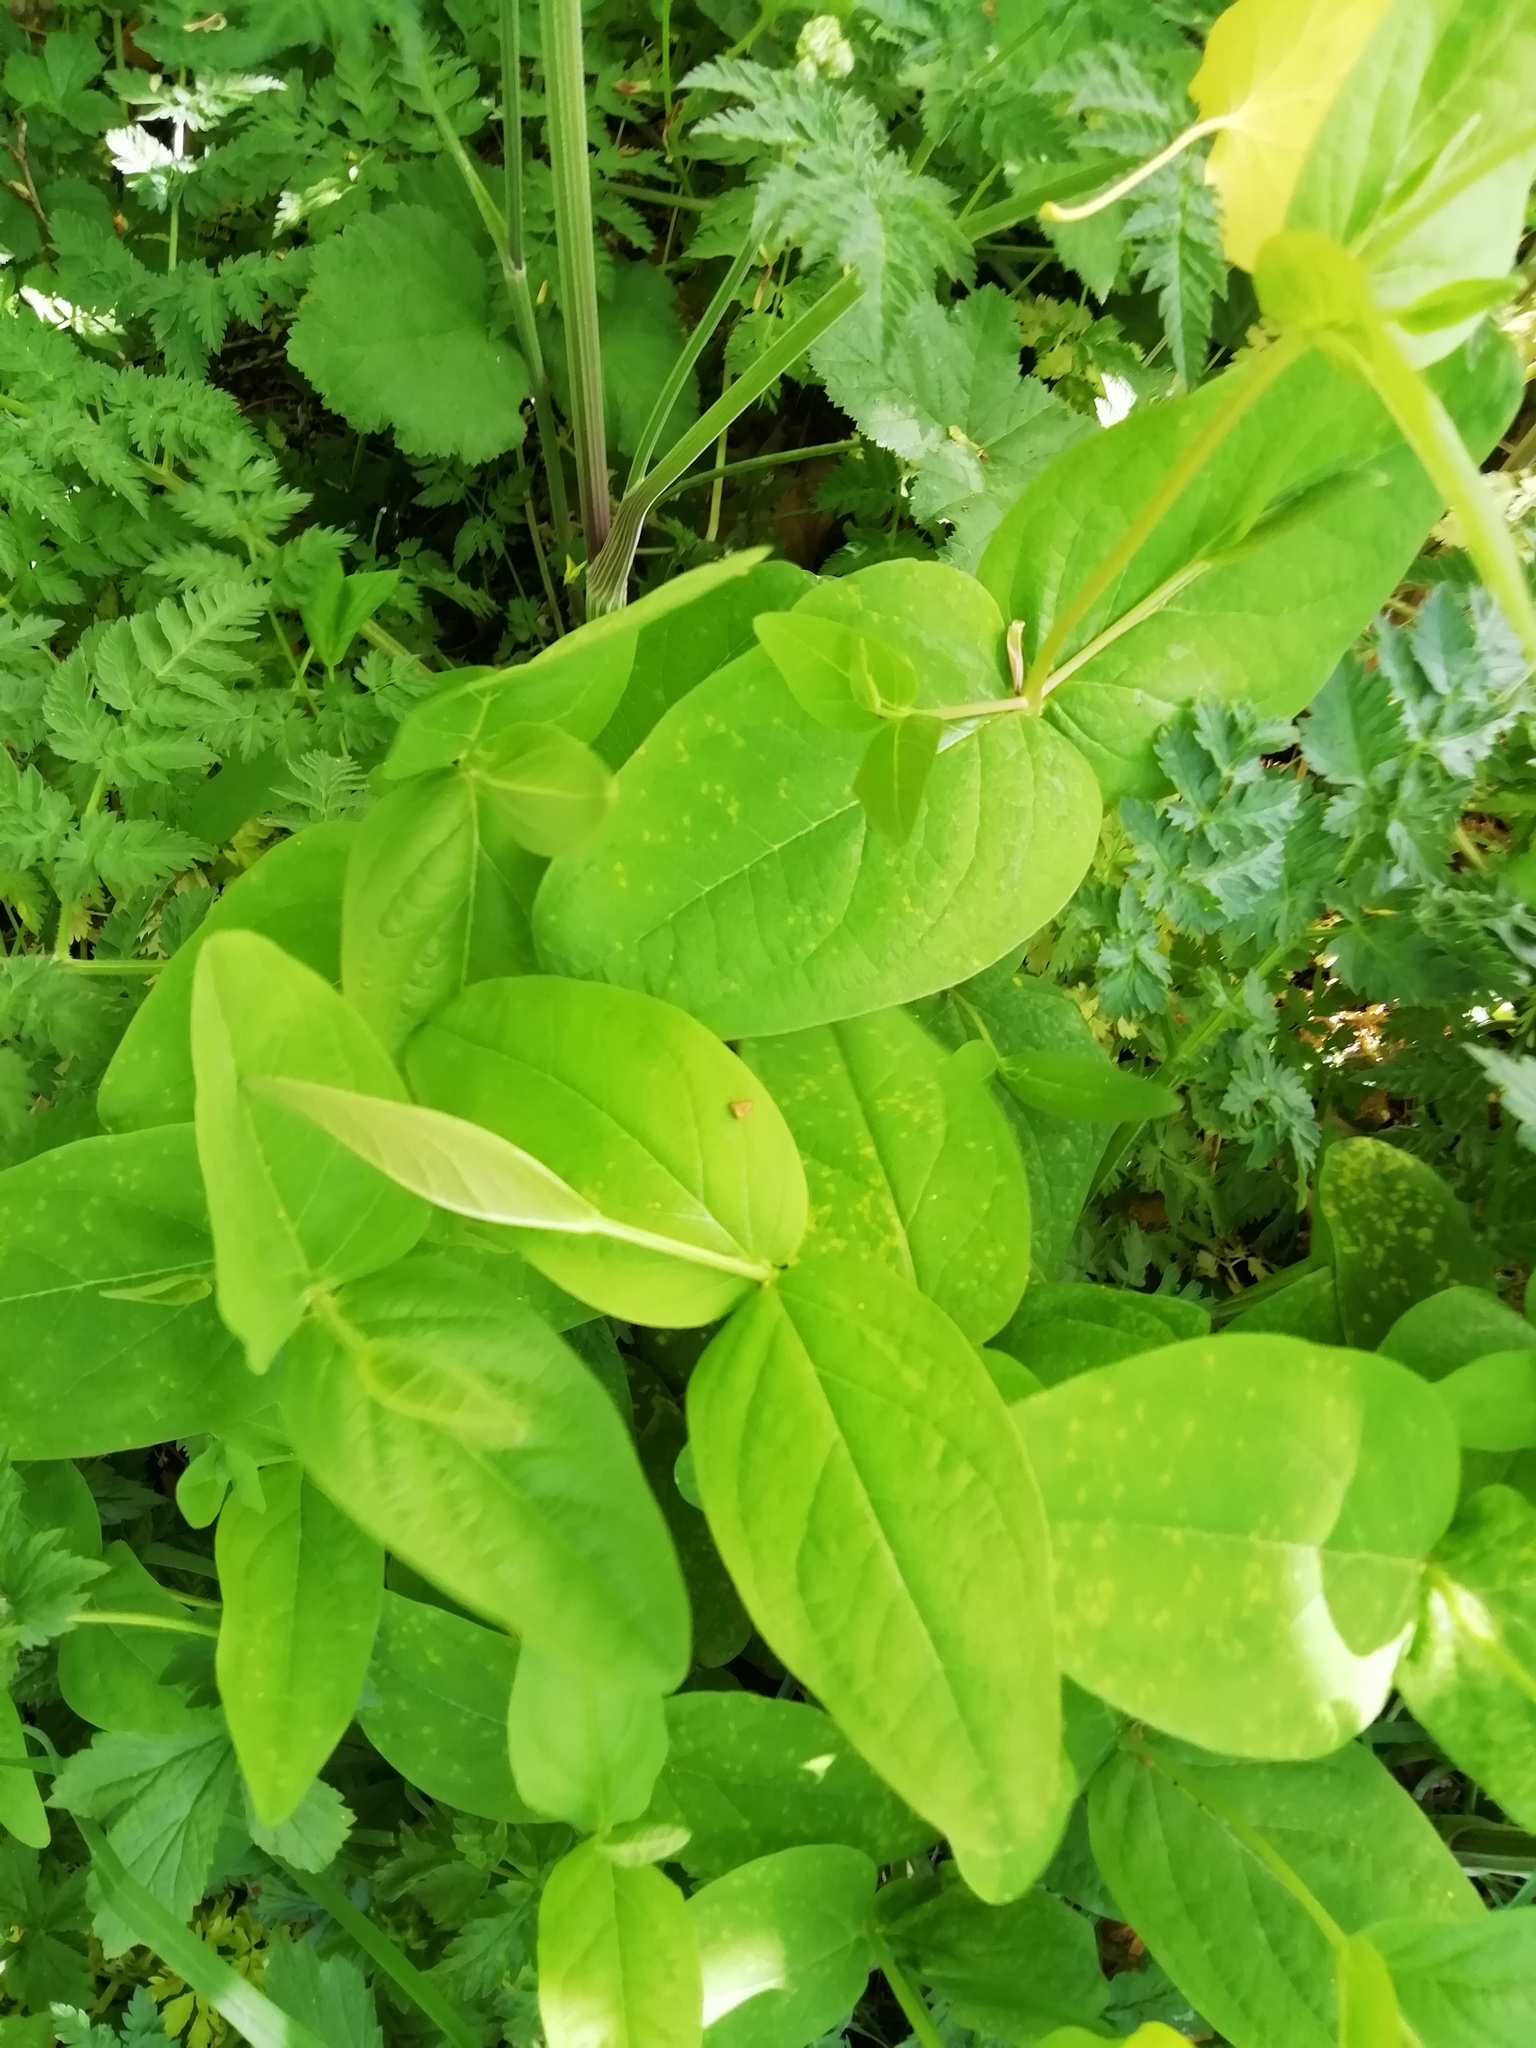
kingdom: Plantae
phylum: Tracheophyta
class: Magnoliopsida
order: Malpighiales
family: Hypericaceae
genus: Hypericum
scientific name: Hypericum androsaemum
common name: Sweet-amber
